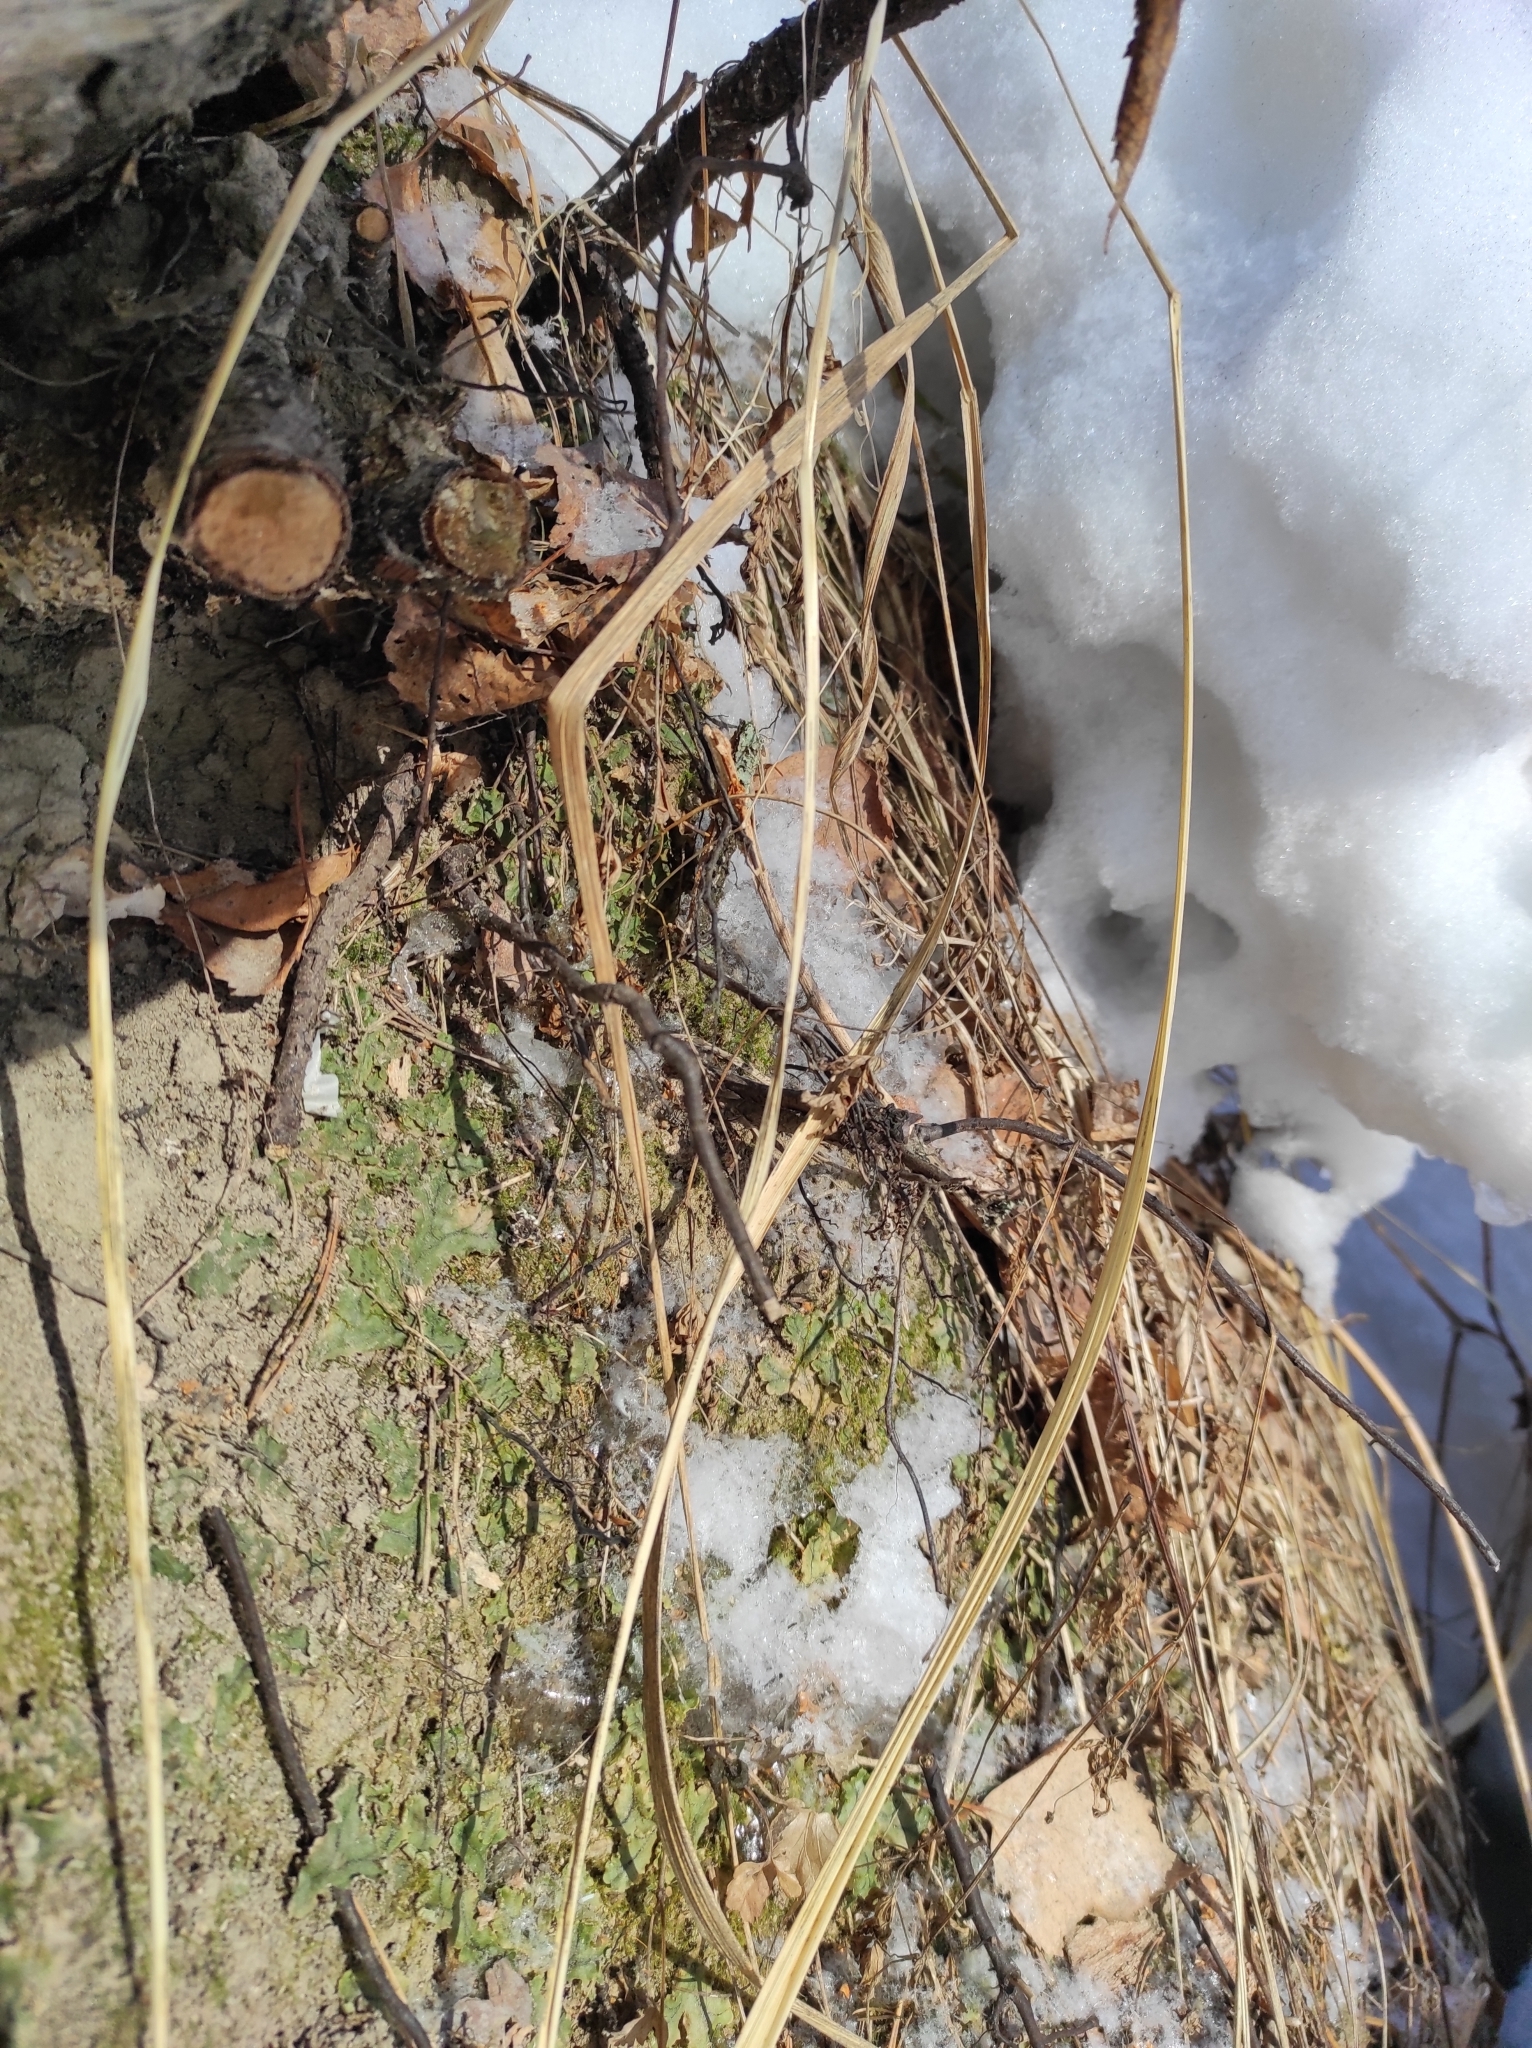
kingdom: Plantae
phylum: Marchantiophyta
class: Marchantiopsida
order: Marchantiales
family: Marchantiaceae
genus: Marchantia
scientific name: Marchantia polymorpha
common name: Common liverwort
